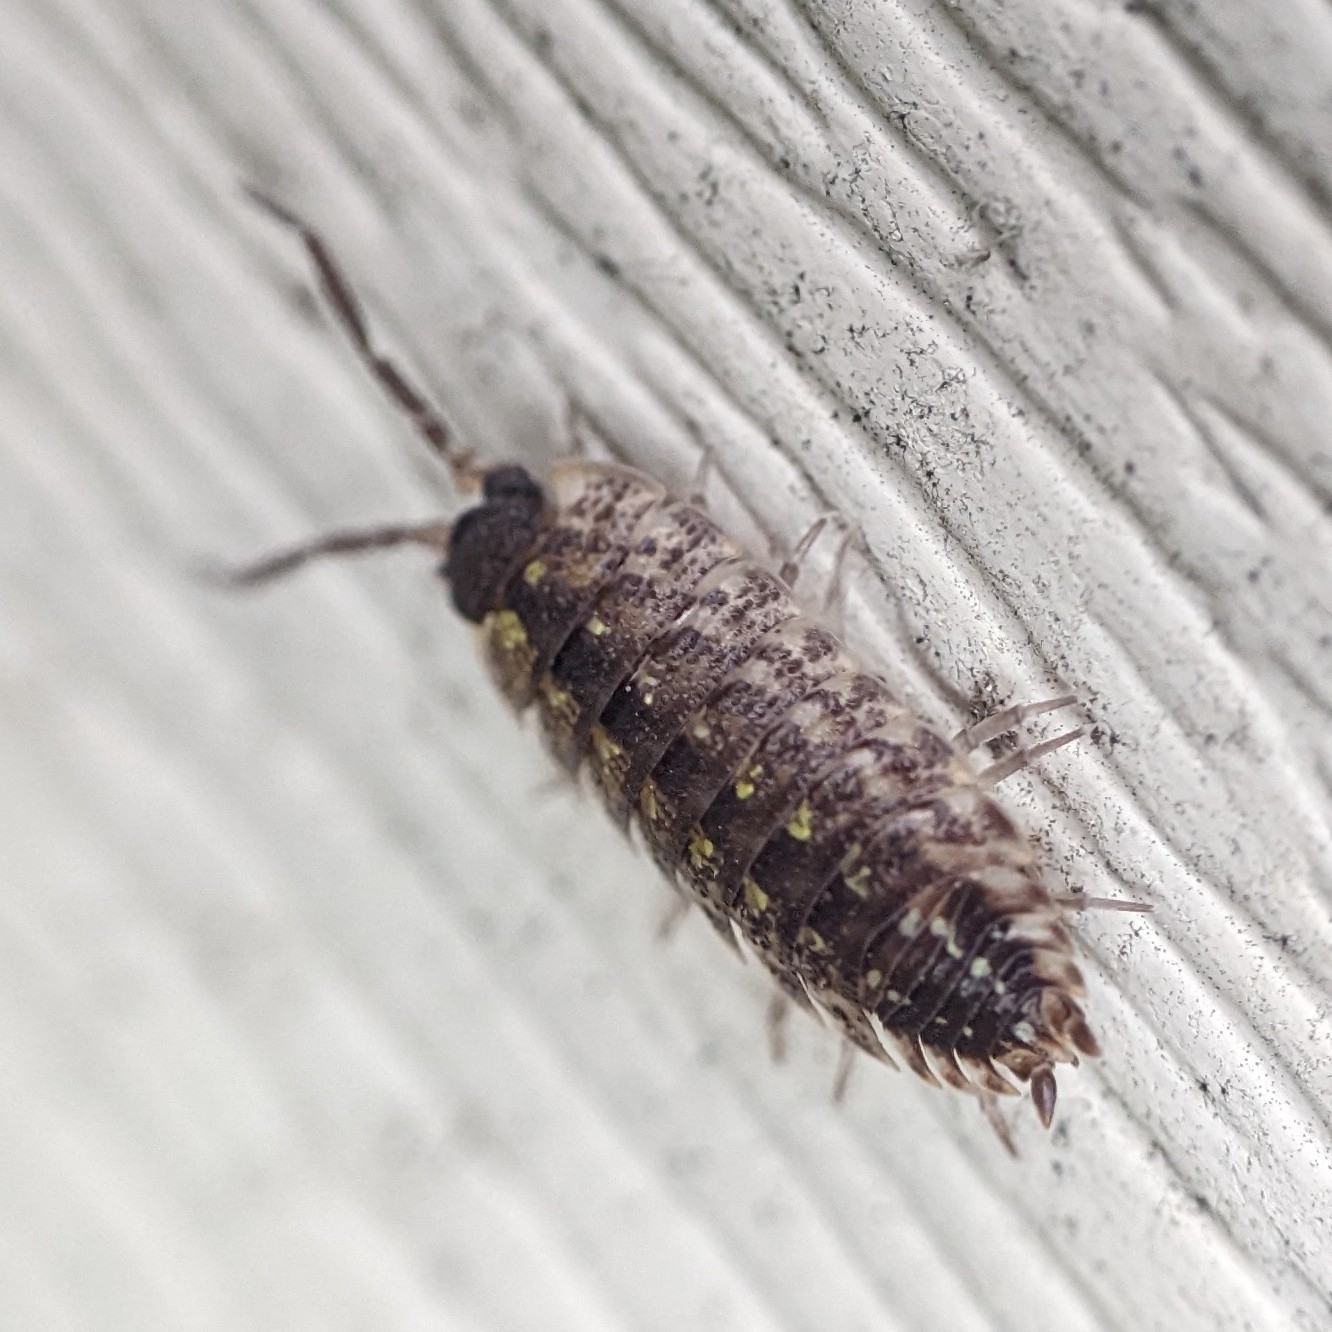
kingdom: Animalia
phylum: Arthropoda
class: Malacostraca
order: Isopoda
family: Porcellionidae
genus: Porcellio
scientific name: Porcellio spinicornis
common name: Painted woodlouse
